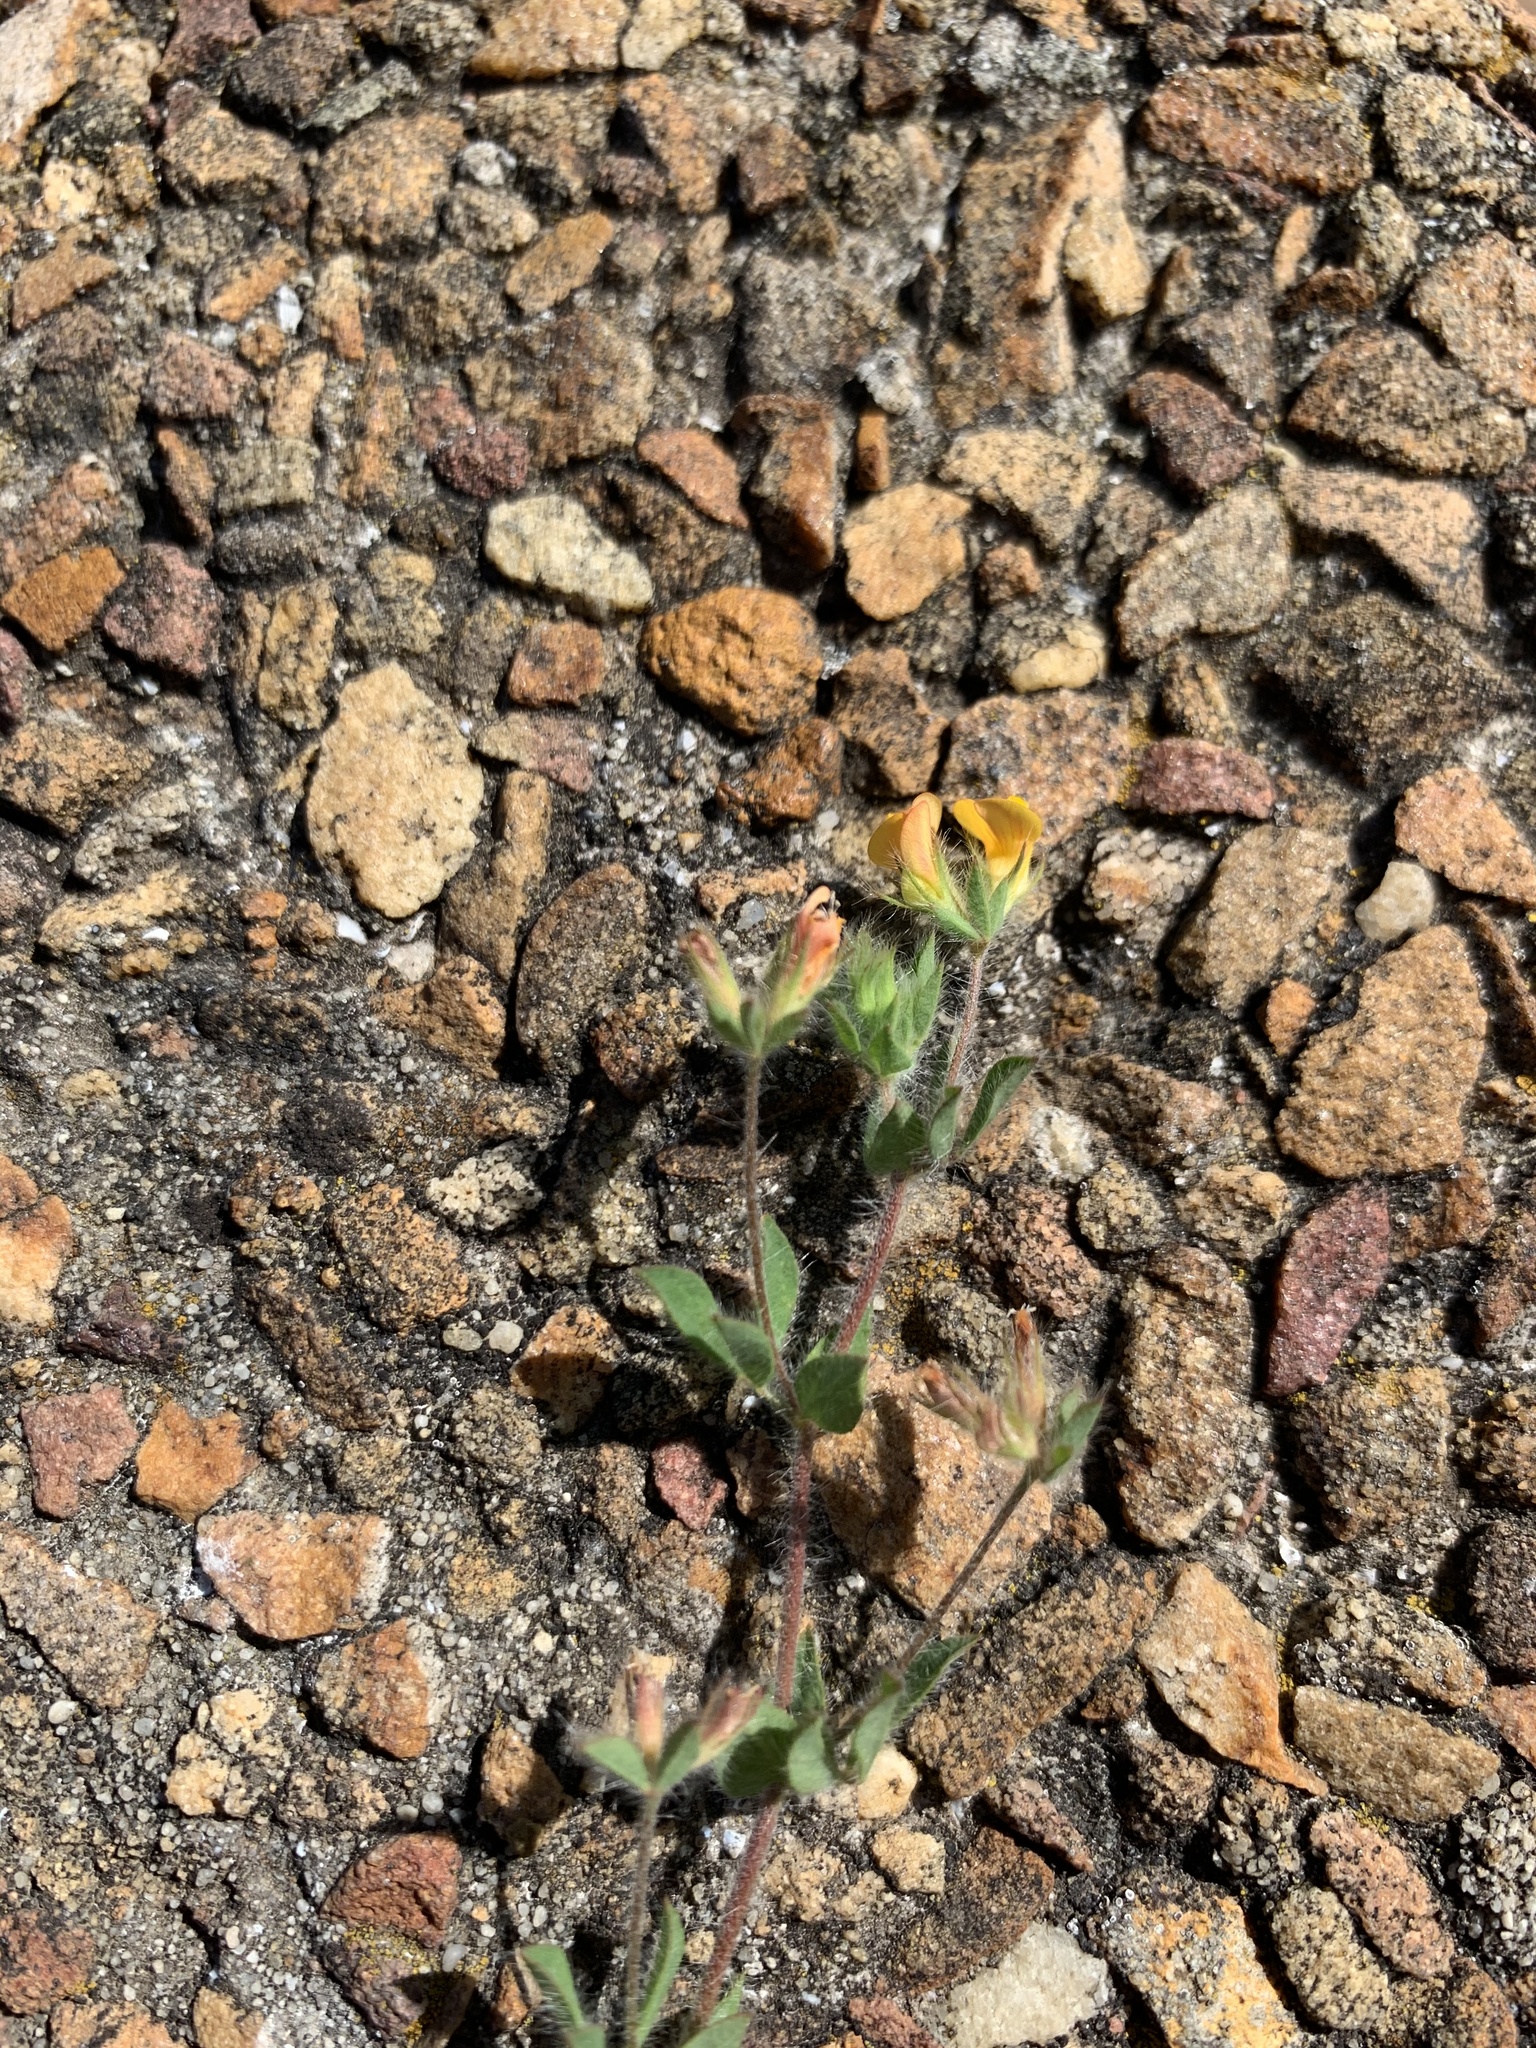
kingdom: Plantae
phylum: Tracheophyta
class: Magnoliopsida
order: Fabales
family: Fabaceae
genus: Lotus
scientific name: Lotus subbiflorus
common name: Hairy bird's-foot trefoil
